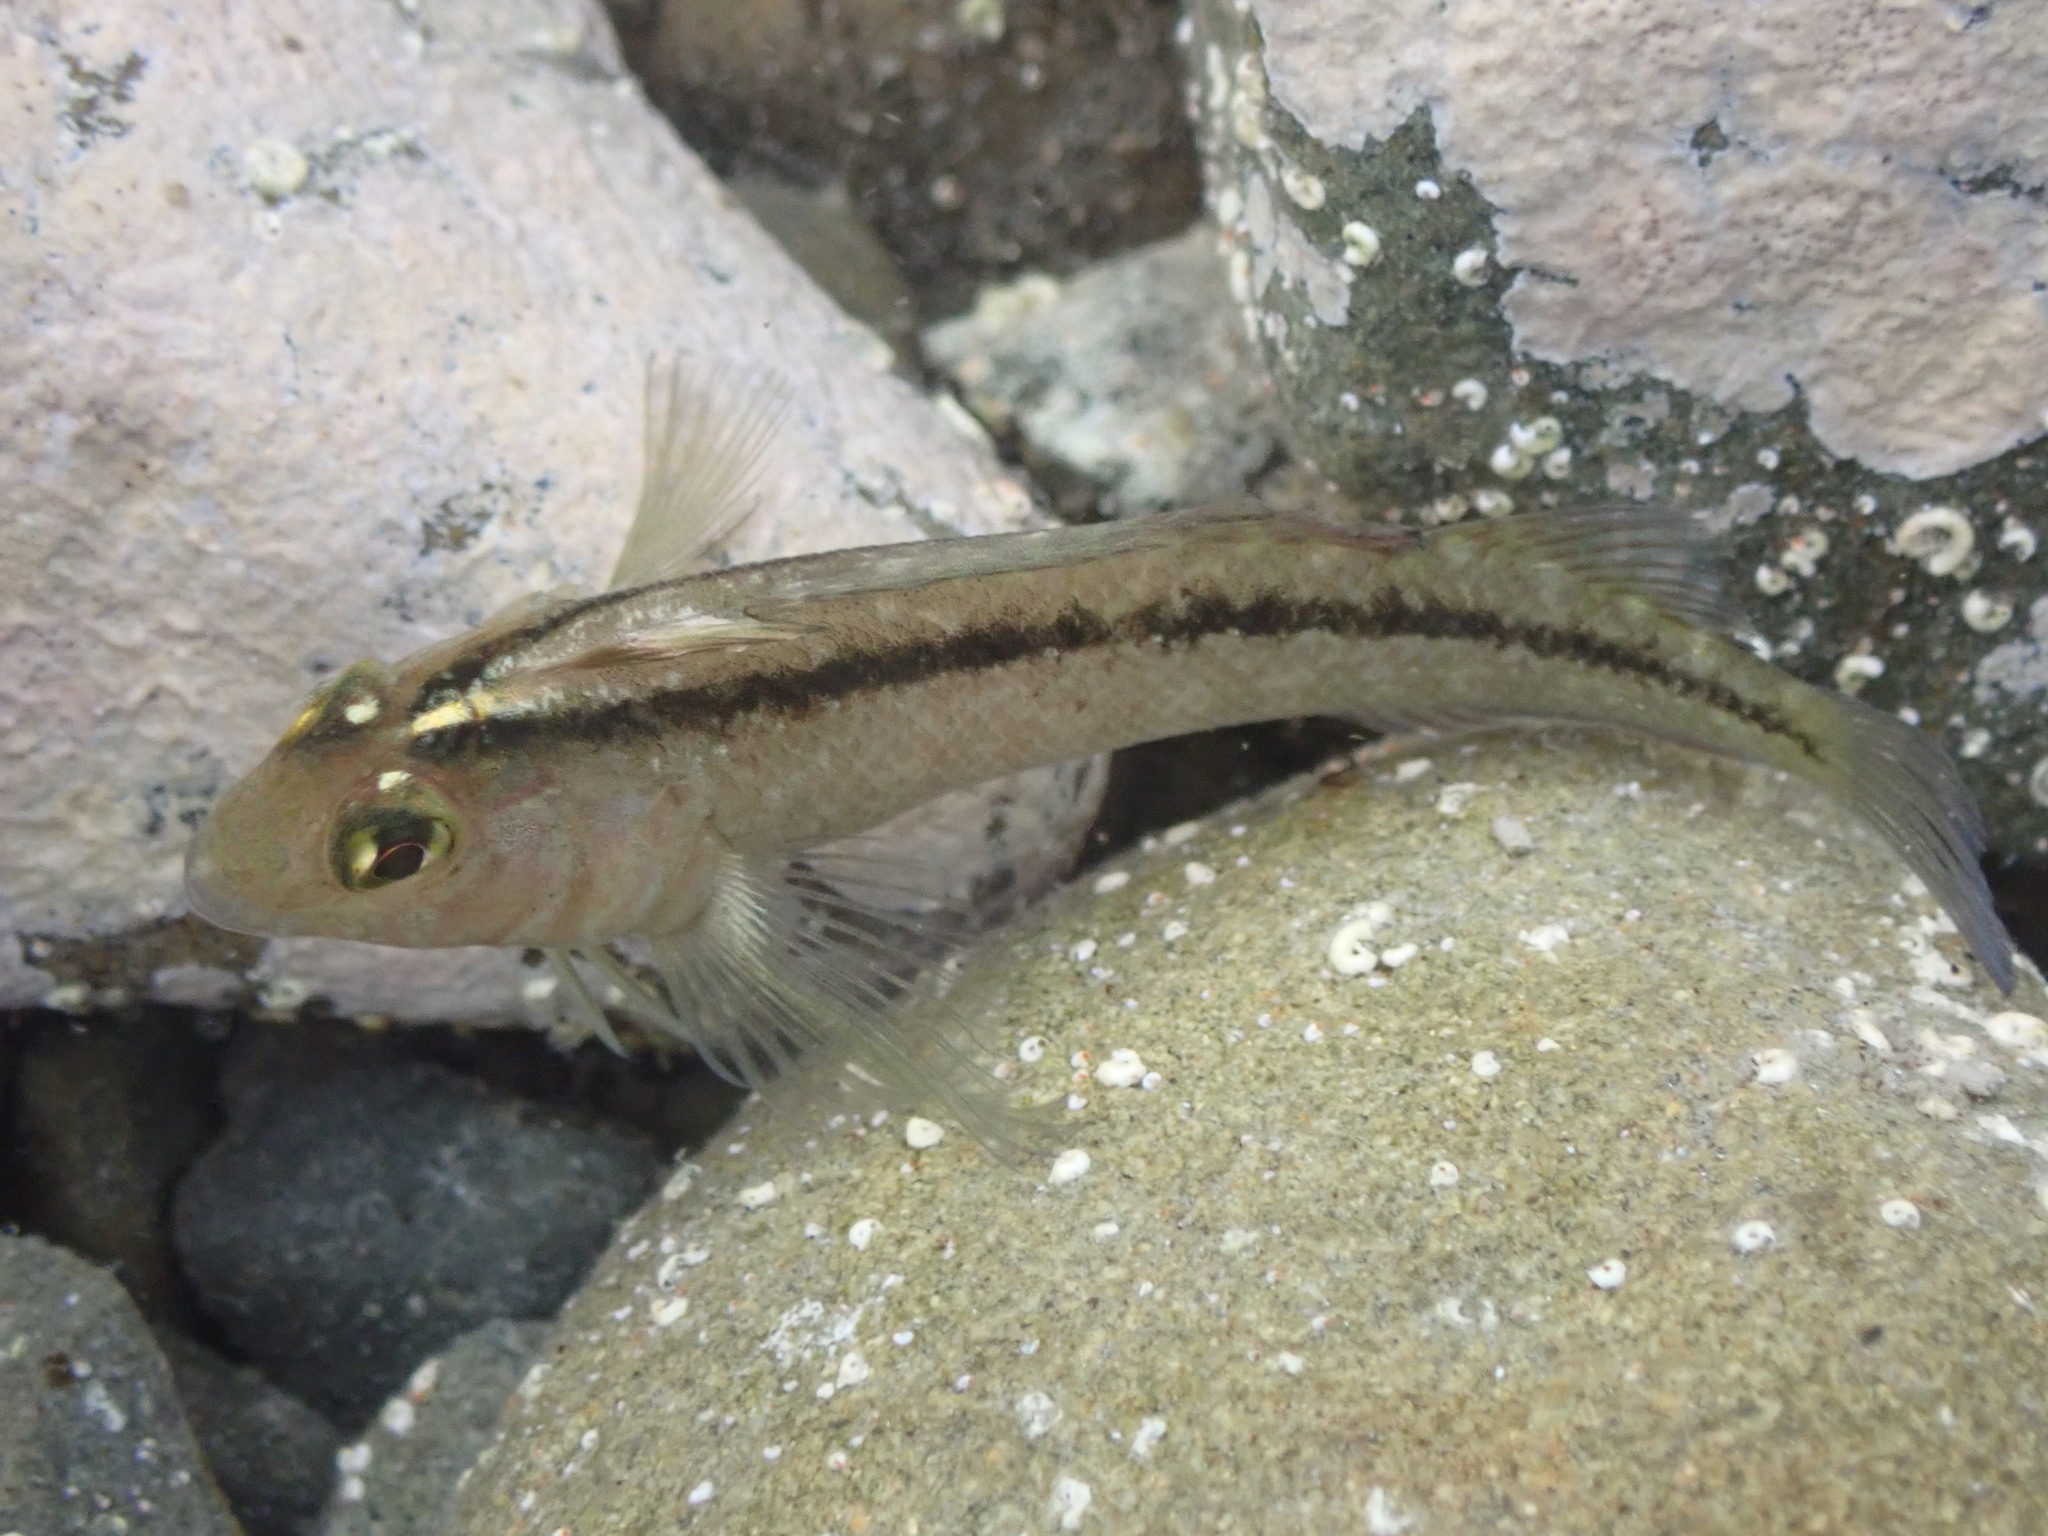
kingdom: Animalia
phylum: Chordata
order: Perciformes
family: Tripterygiidae
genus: Forsterygion
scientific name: Forsterygion lapillum
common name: Common triplefin
